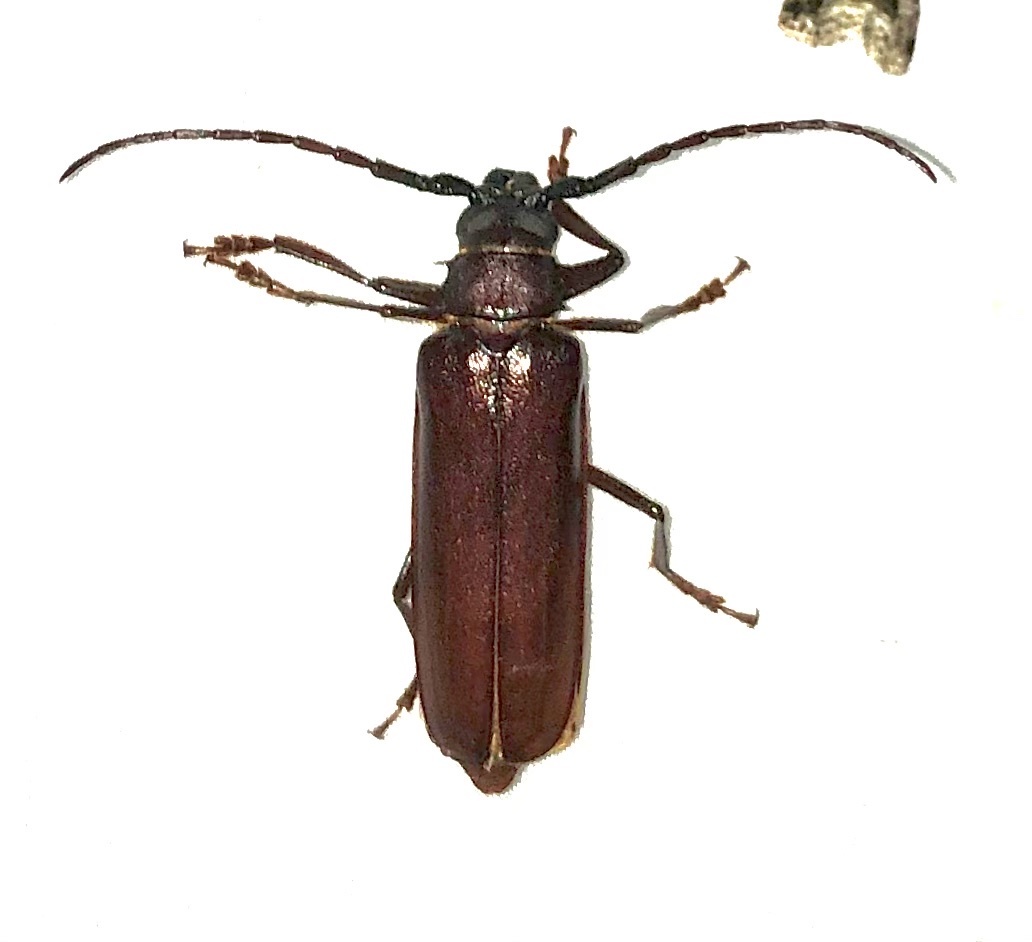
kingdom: Animalia
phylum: Arthropoda
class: Insecta
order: Coleoptera
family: Cerambycidae
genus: Orthosoma
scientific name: Orthosoma brunneum
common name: Brown prionid beetle
